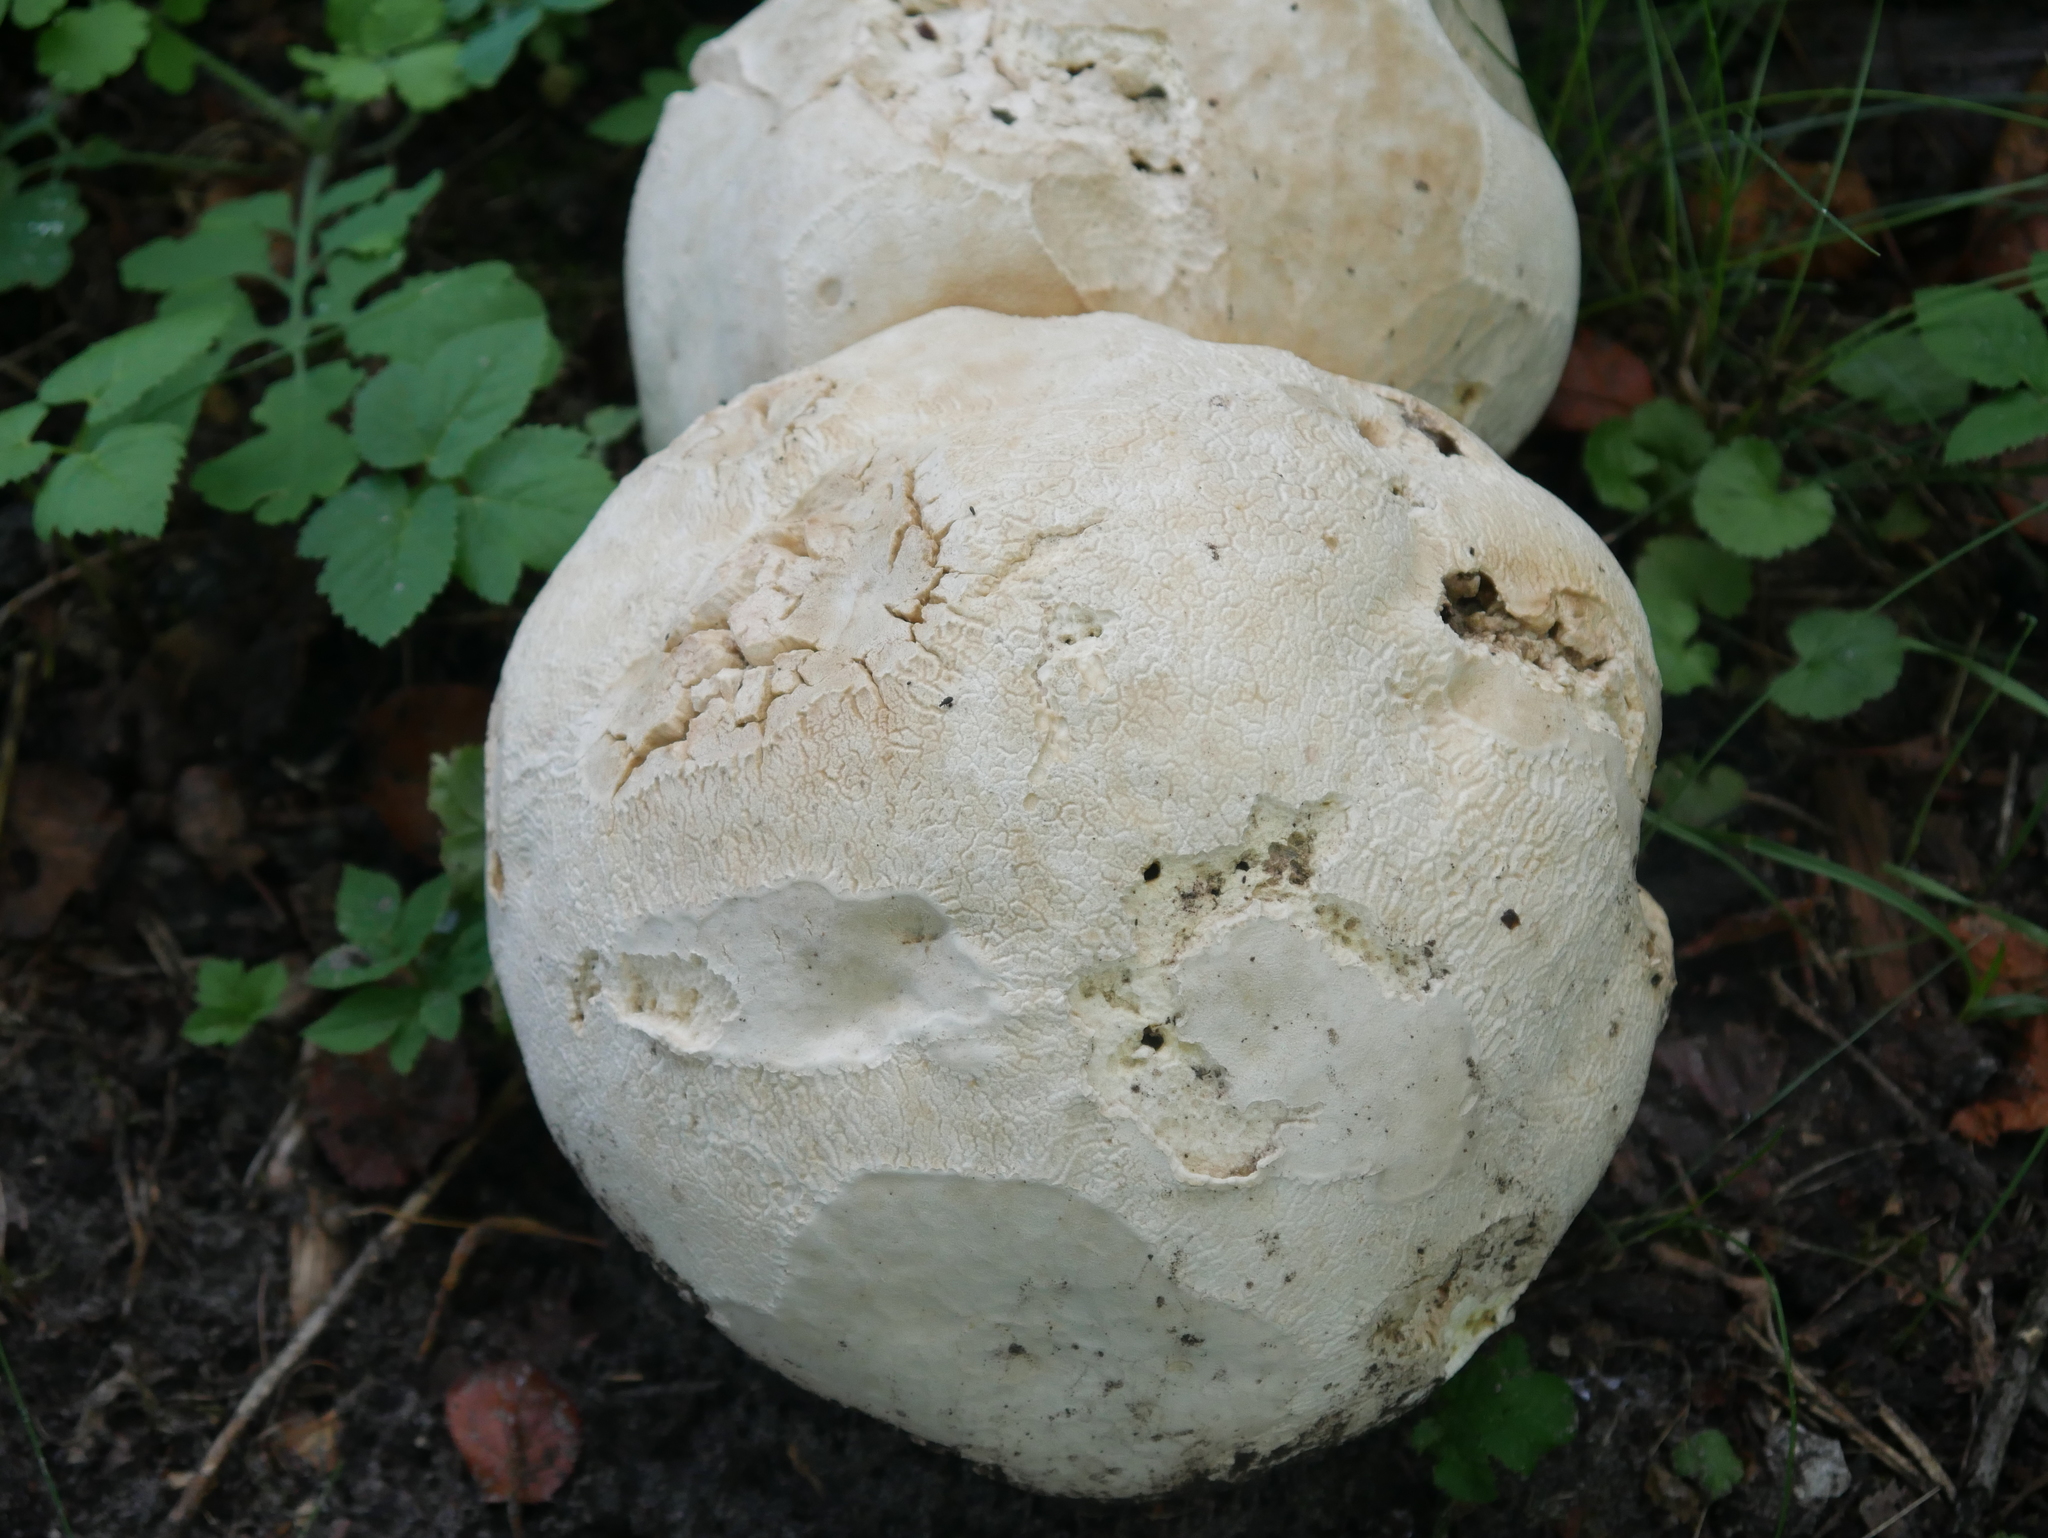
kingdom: Fungi
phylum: Basidiomycota
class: Agaricomycetes
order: Agaricales
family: Lycoperdaceae
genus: Calvatia
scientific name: Calvatia gigantea
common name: Giant puffball
